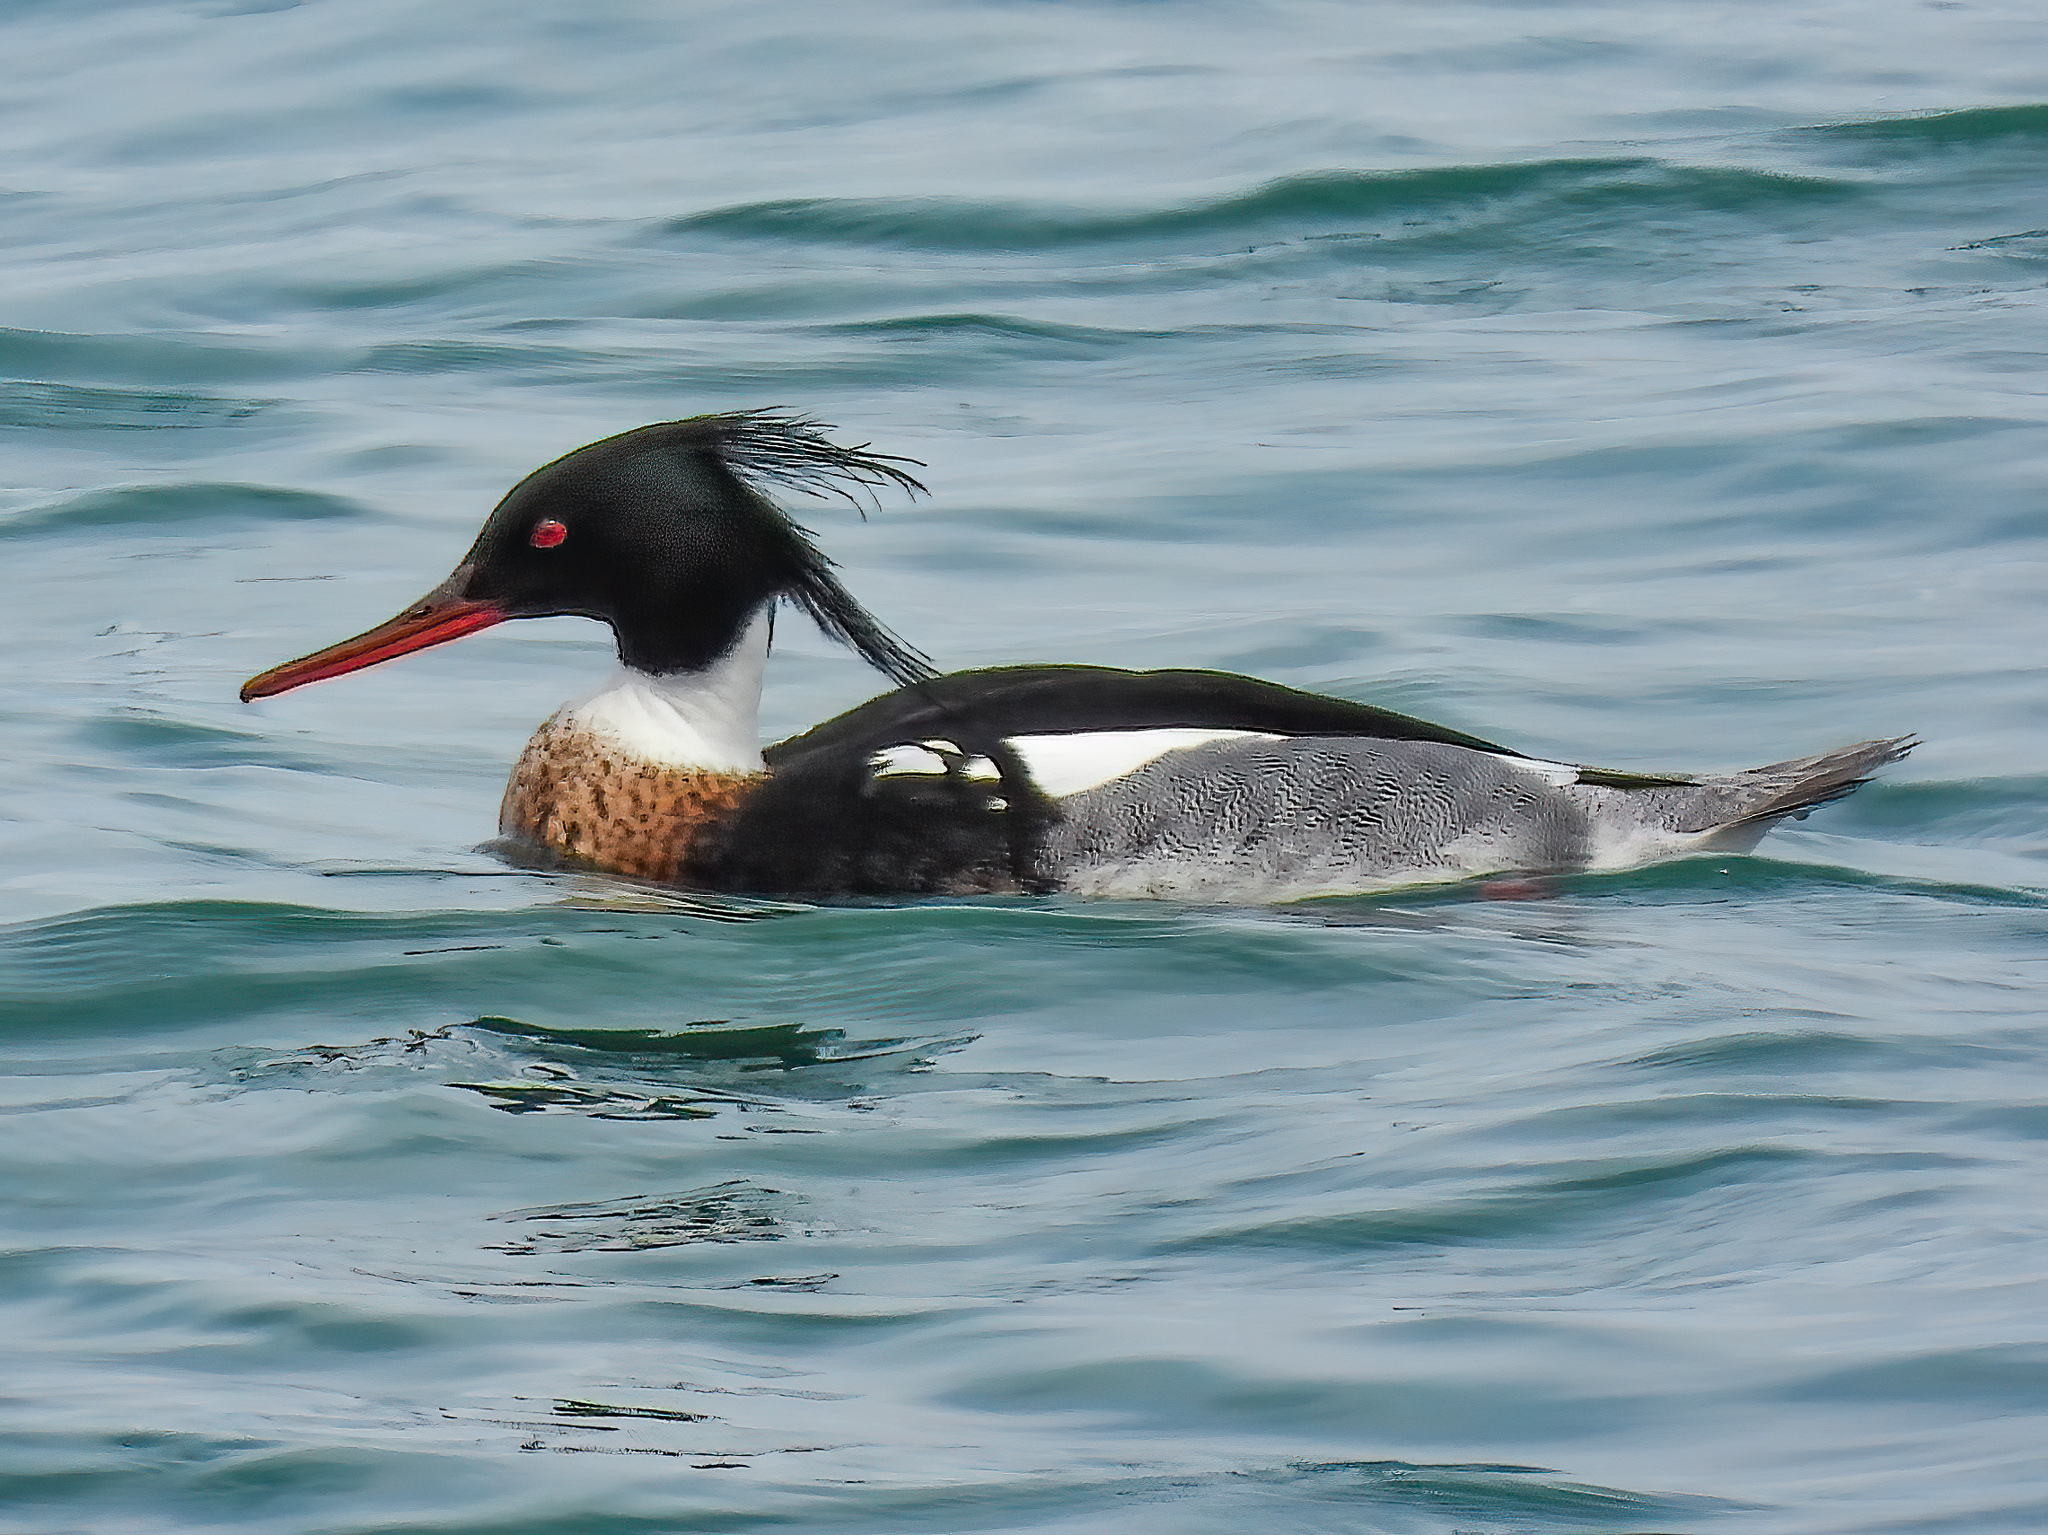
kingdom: Animalia
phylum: Chordata
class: Aves
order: Anseriformes
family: Anatidae
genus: Mergus
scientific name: Mergus serrator
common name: Red-breasted merganser
